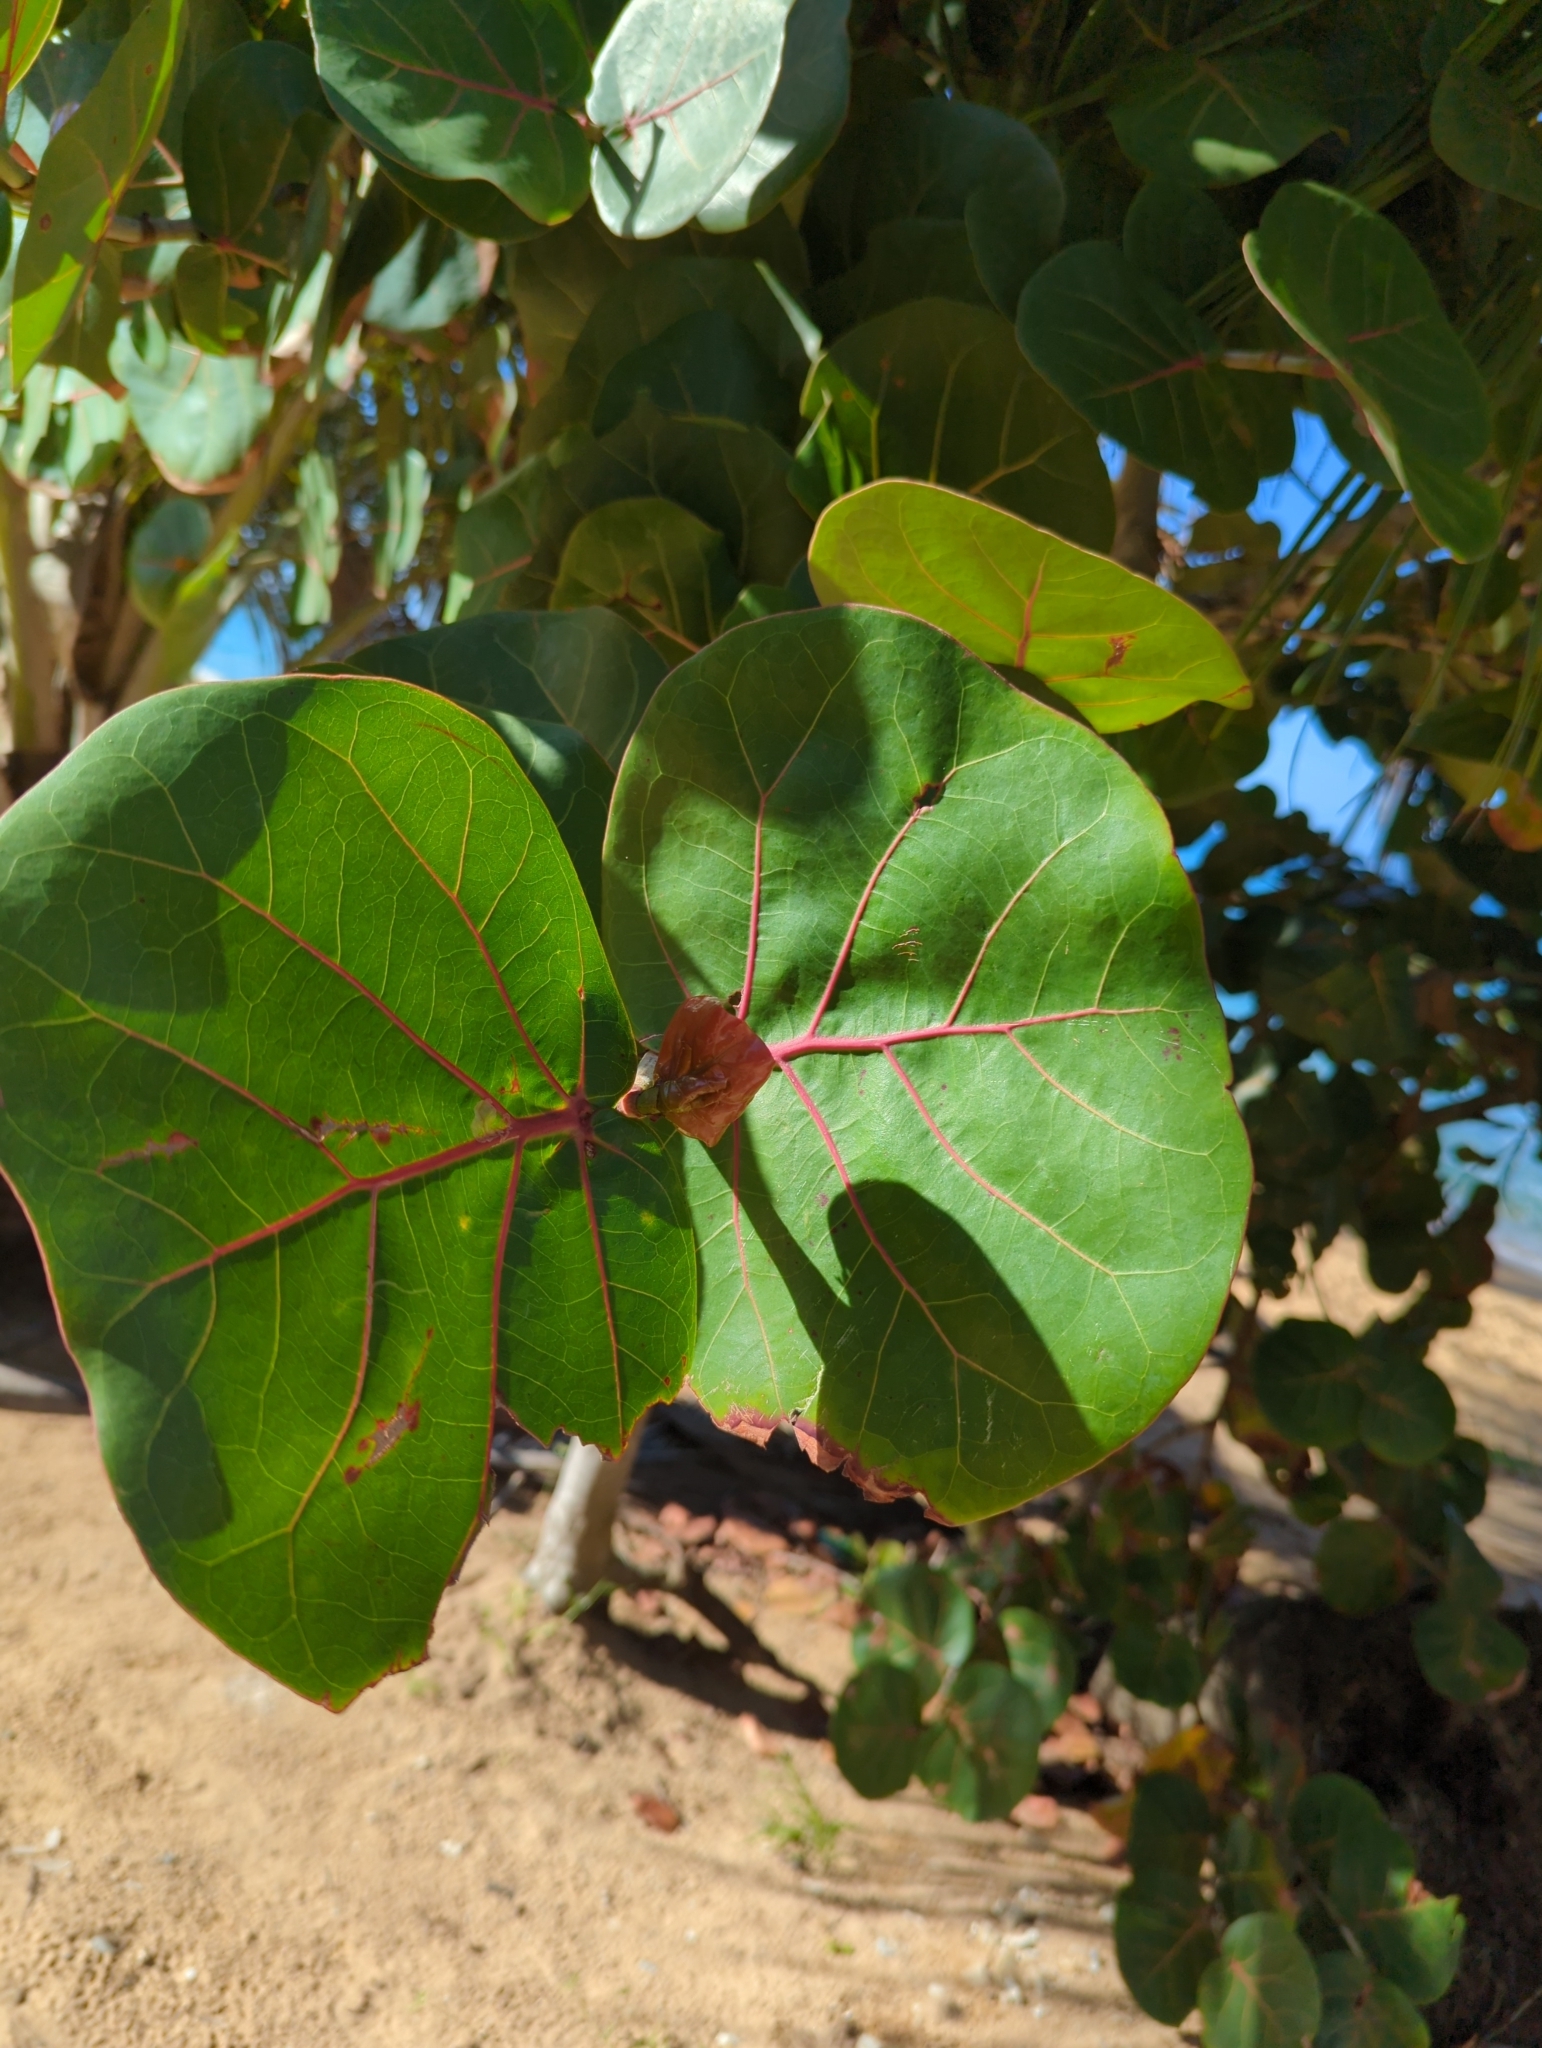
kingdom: Plantae
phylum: Tracheophyta
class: Magnoliopsida
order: Caryophyllales
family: Polygonaceae
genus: Coccoloba
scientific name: Coccoloba uvifera
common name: Seagrape
